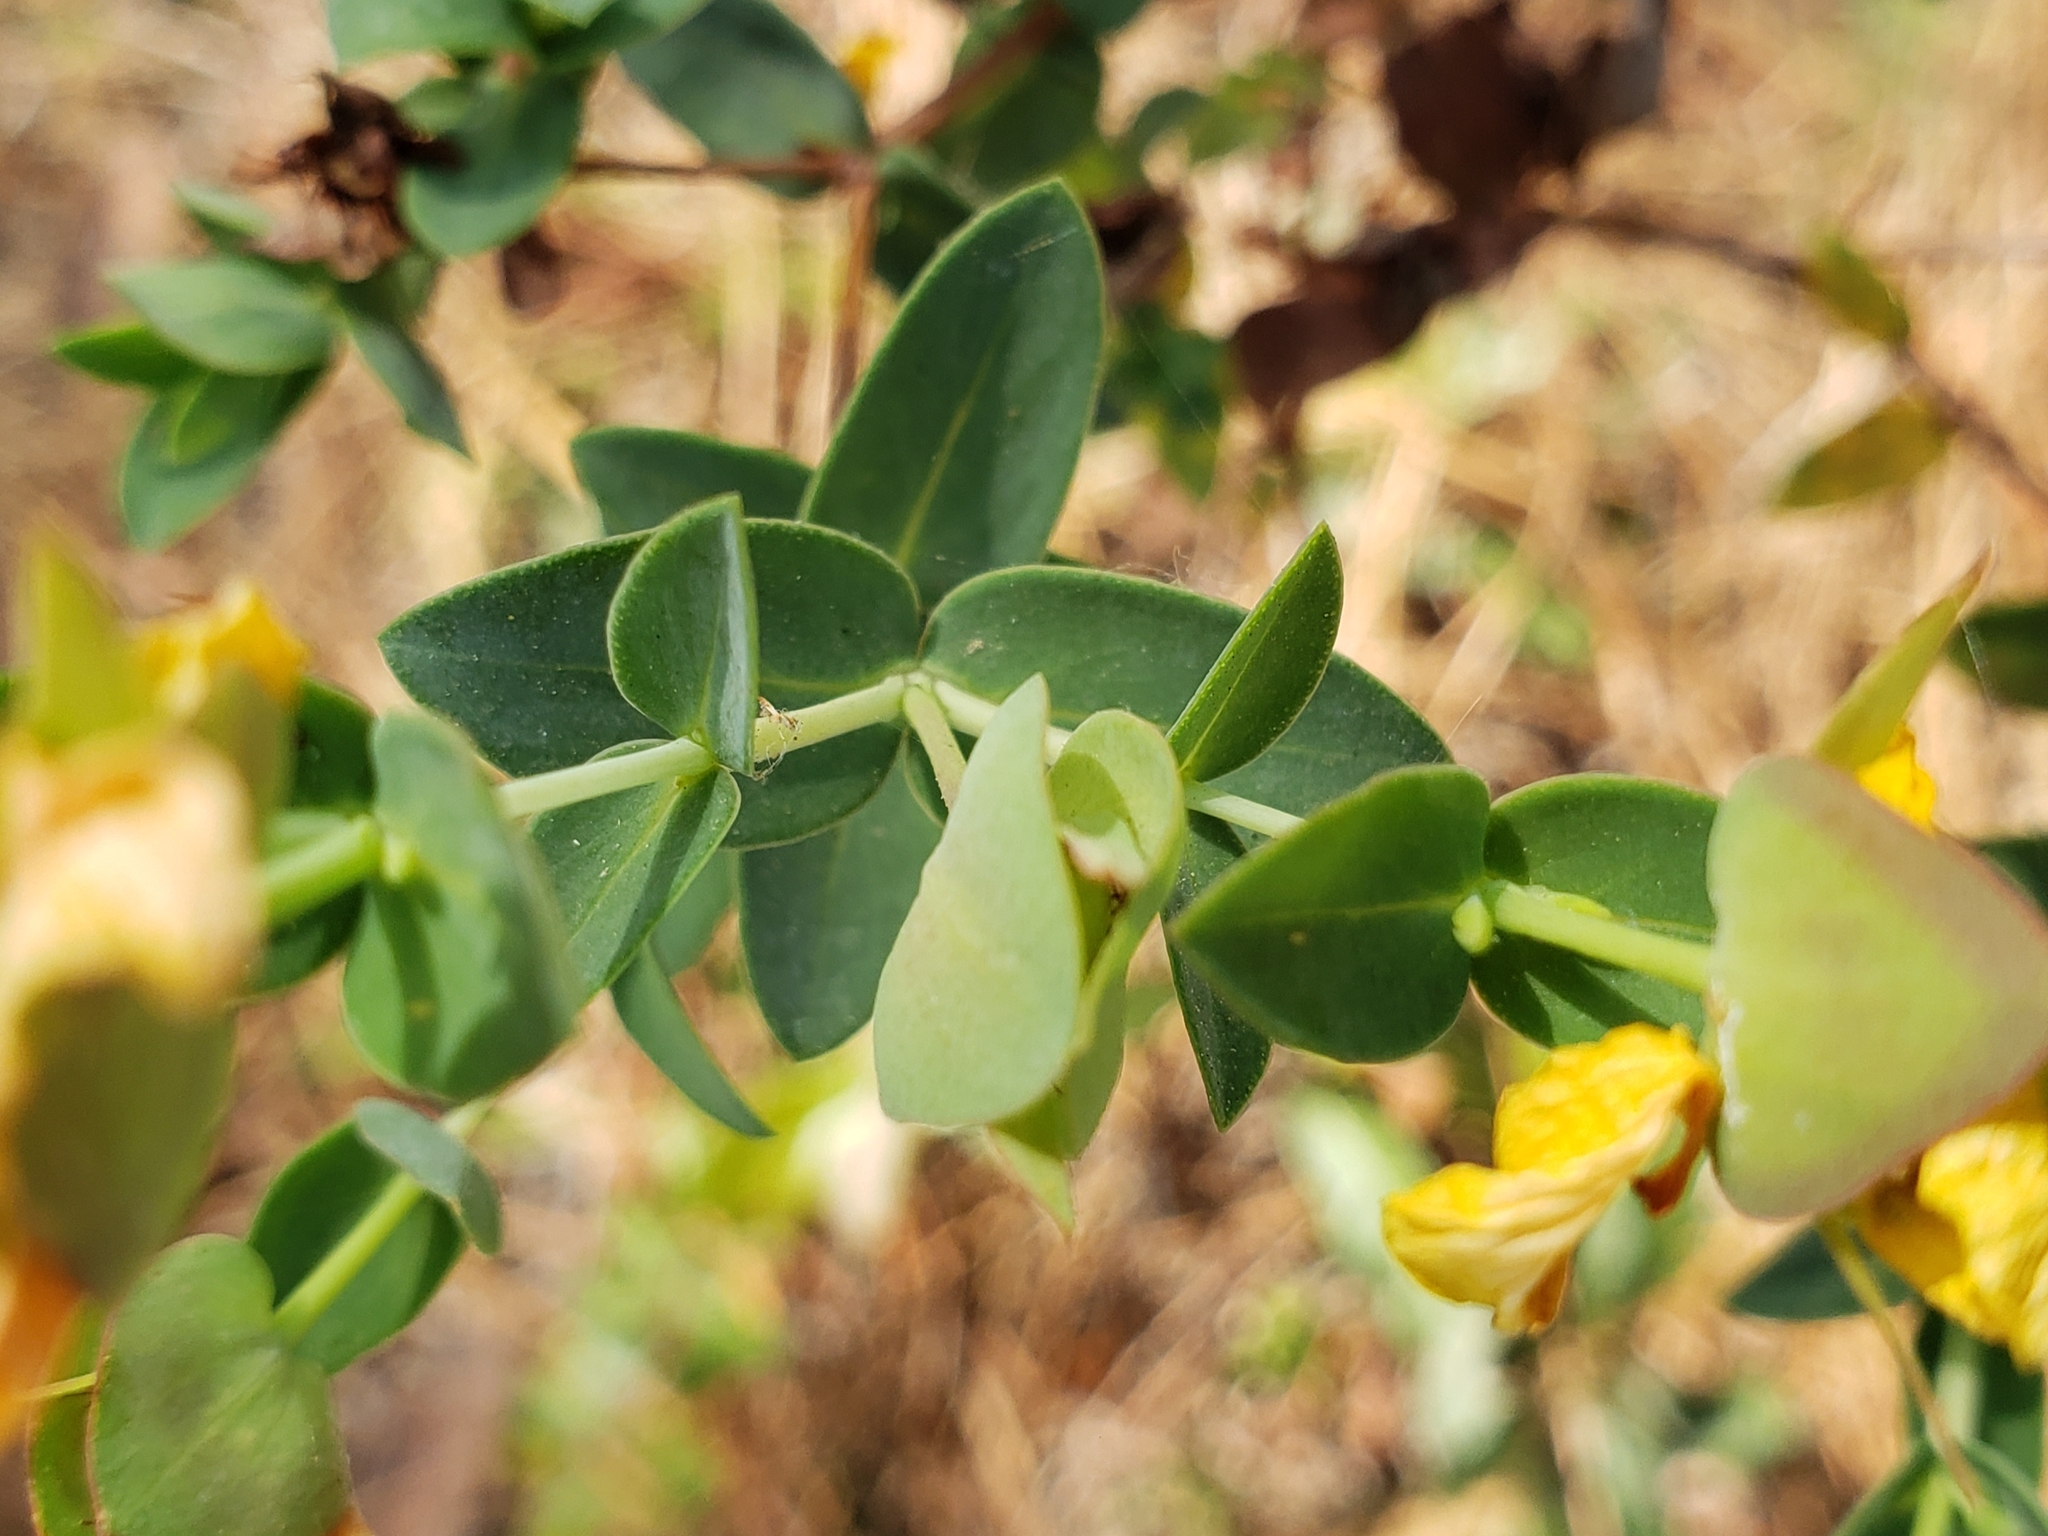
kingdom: Plantae
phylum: Tracheophyta
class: Magnoliopsida
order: Malpighiales
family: Hypericaceae
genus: Hypericum
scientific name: Hypericum tetrapetalum
